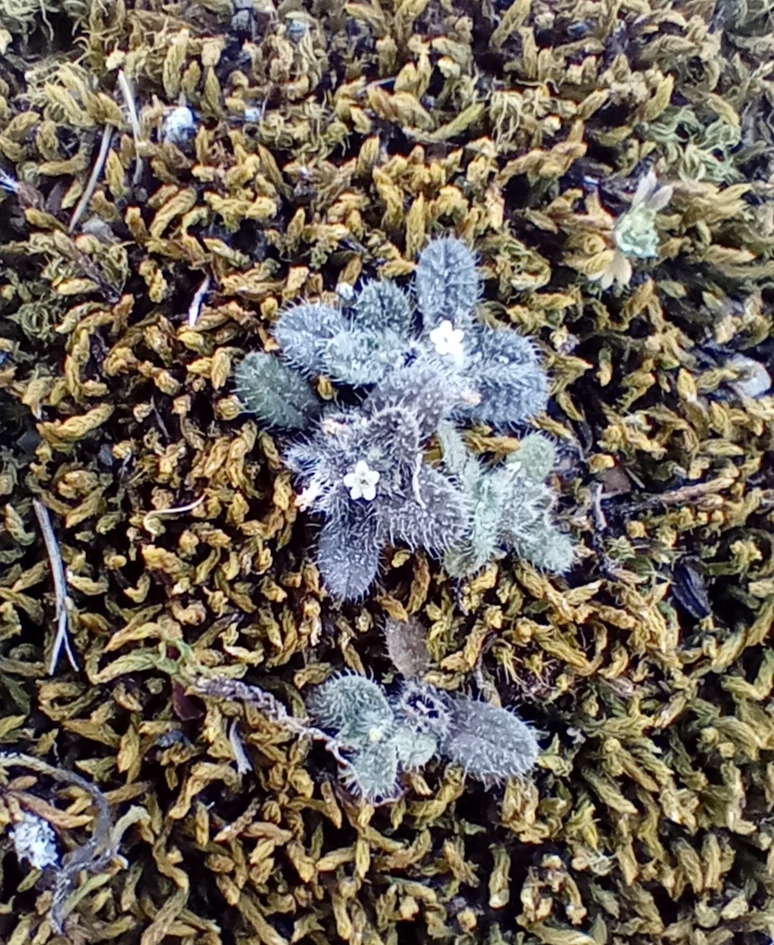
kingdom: Plantae
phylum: Tracheophyta
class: Magnoliopsida
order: Boraginales
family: Boraginaceae
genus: Myosotis
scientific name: Myosotis brevis
